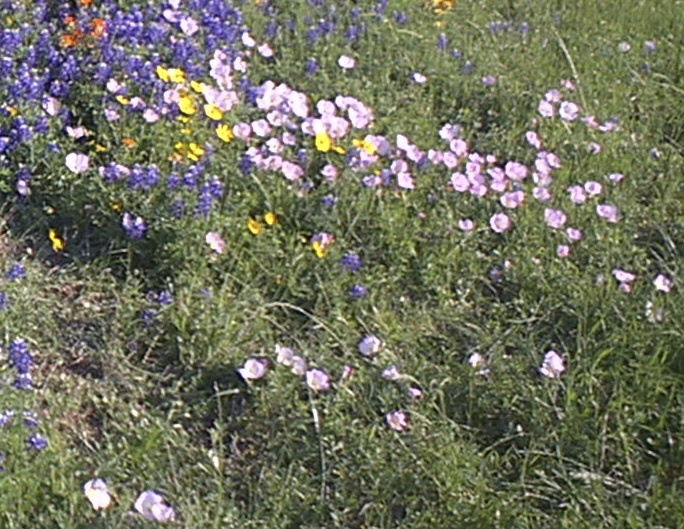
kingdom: Plantae
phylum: Tracheophyta
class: Magnoliopsida
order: Myrtales
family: Onagraceae
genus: Oenothera
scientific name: Oenothera speciosa
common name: White evening-primrose
